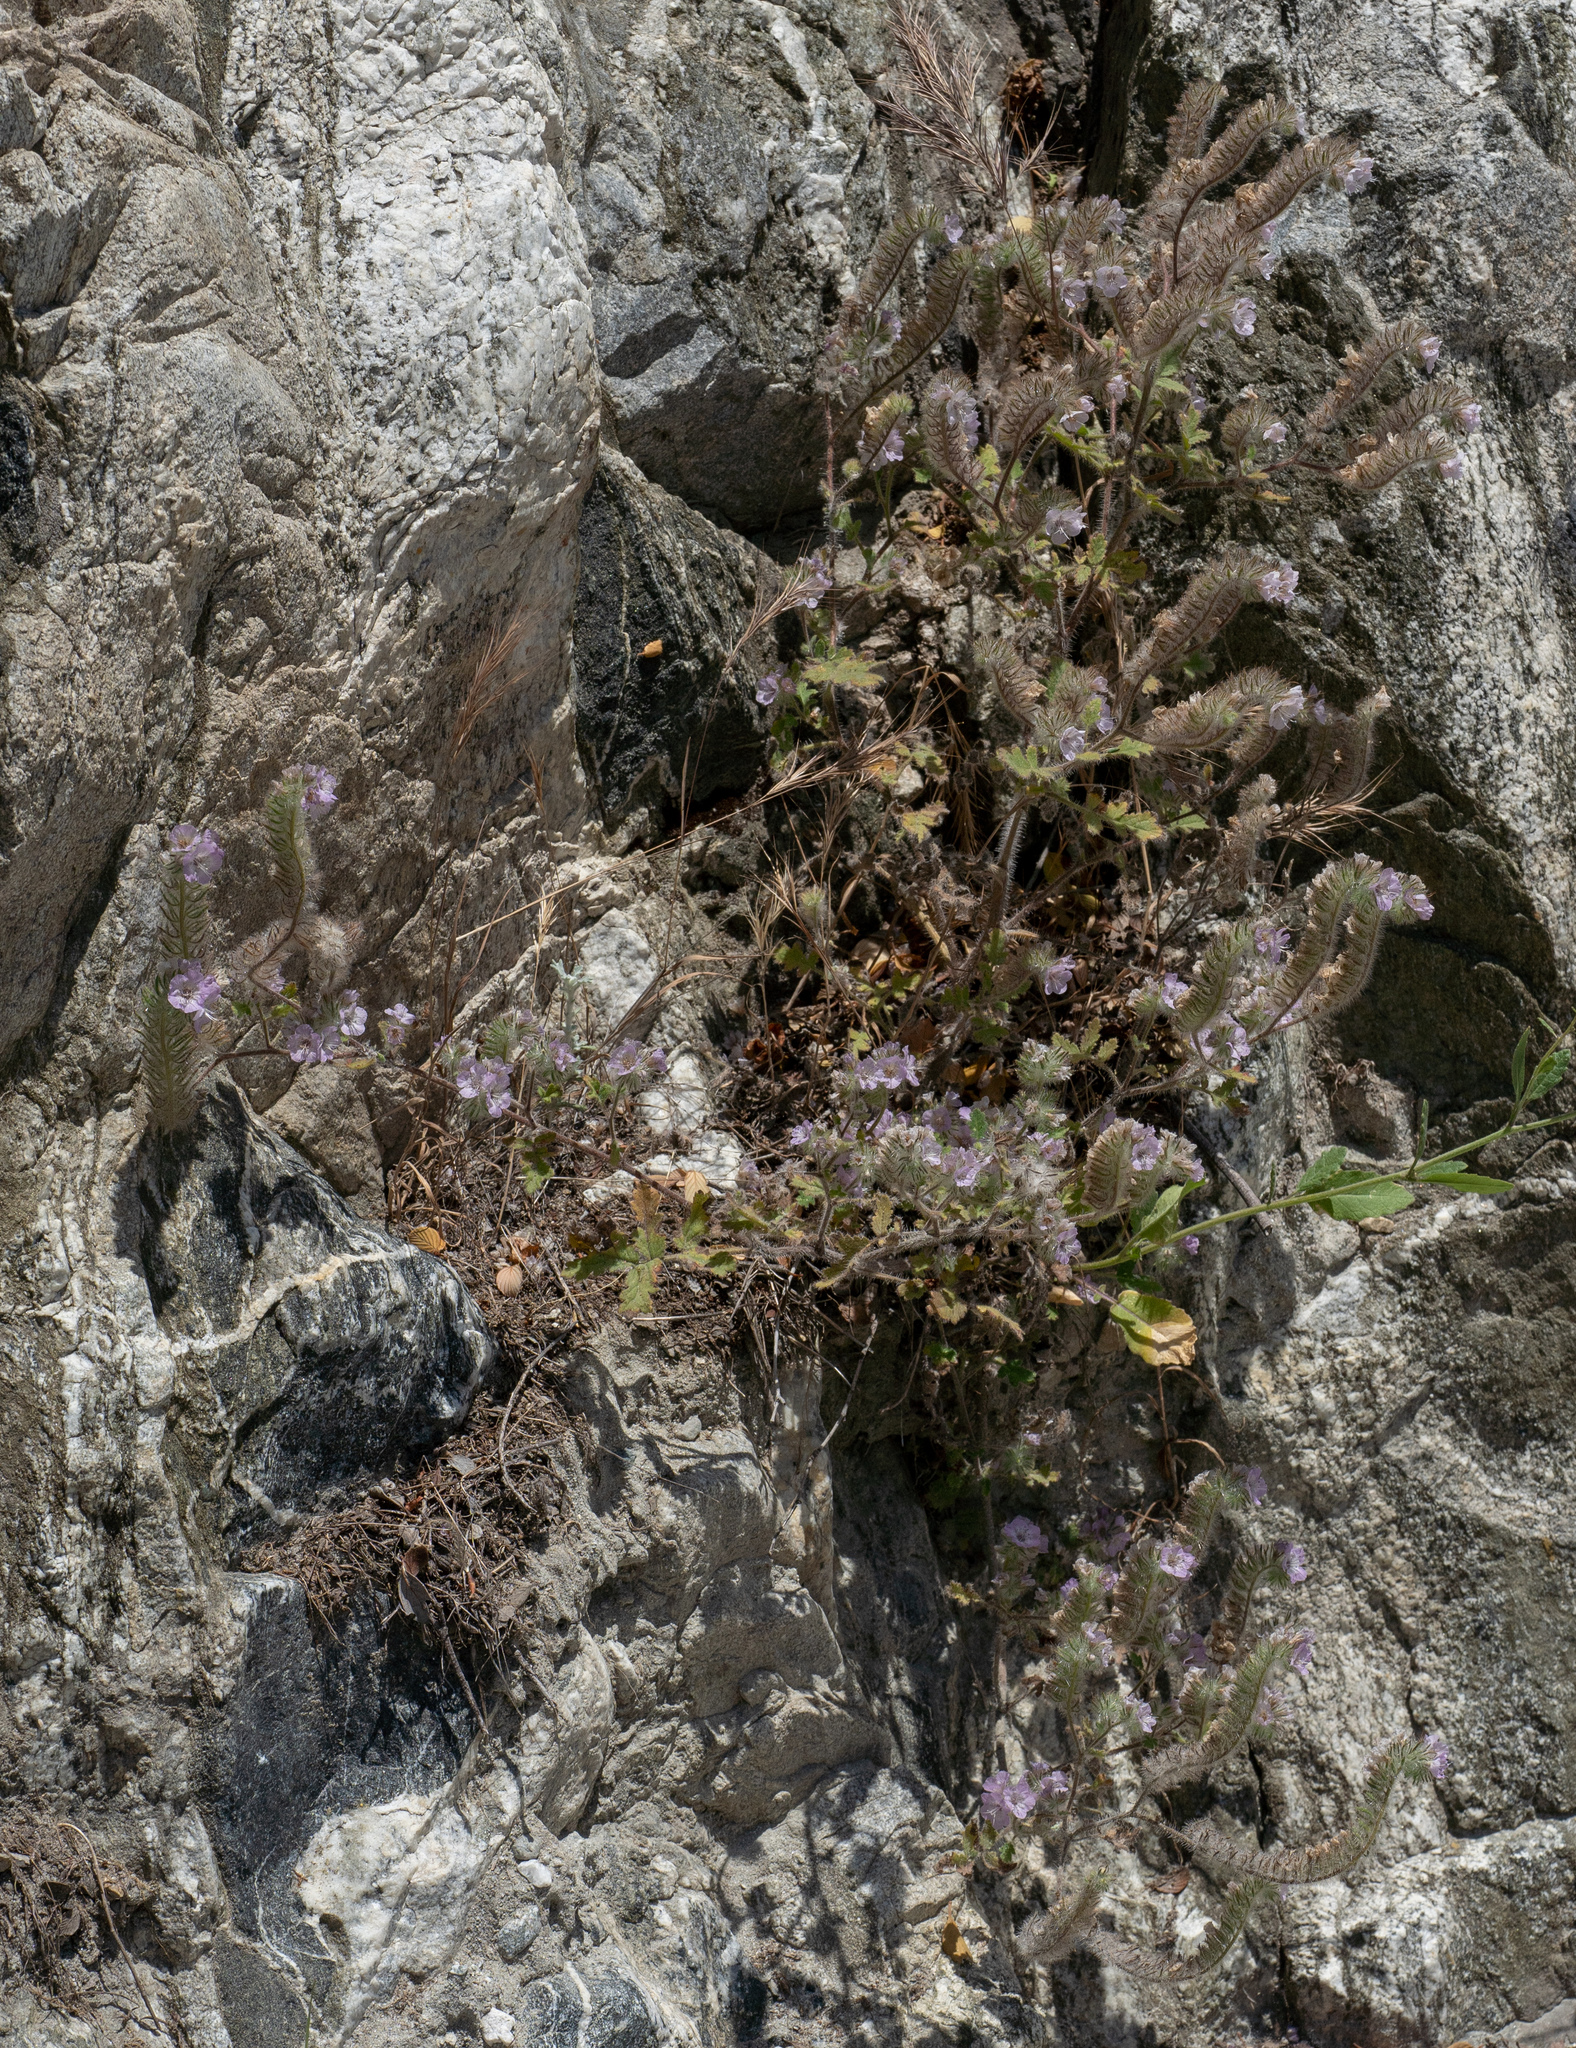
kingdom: Plantae
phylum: Tracheophyta
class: Magnoliopsida
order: Boraginales
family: Hydrophyllaceae
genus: Phacelia
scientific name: Phacelia cicutaria
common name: Caterpillar phacelia
